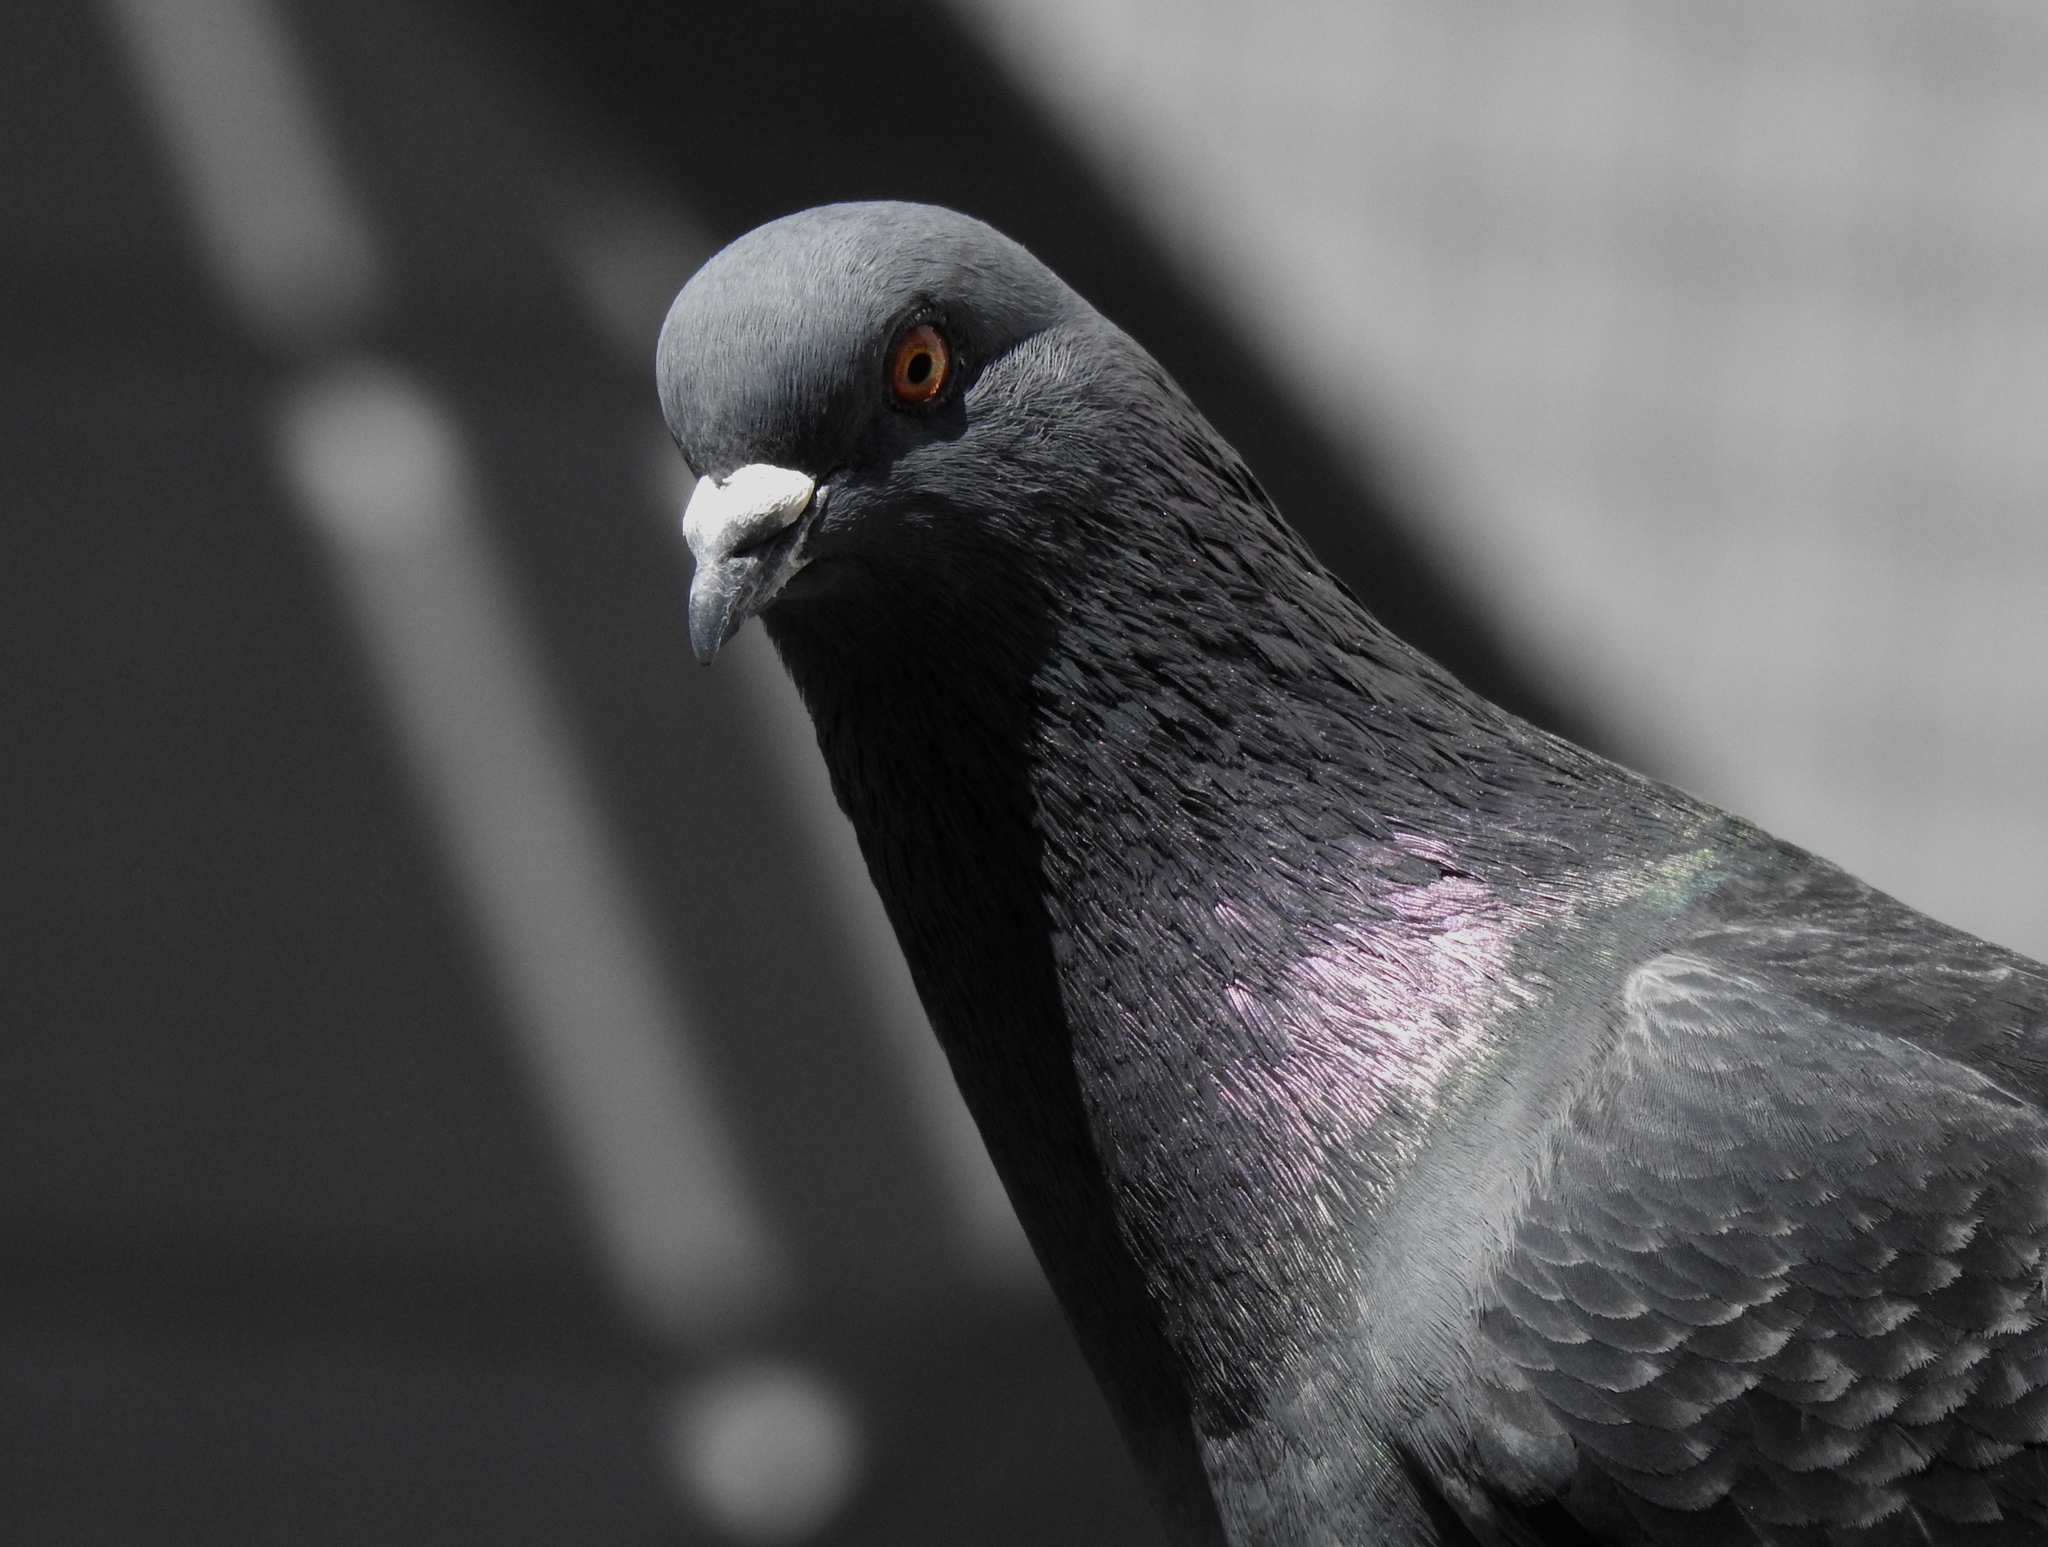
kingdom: Animalia
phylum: Chordata
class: Aves
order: Columbiformes
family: Columbidae
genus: Columba
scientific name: Columba livia
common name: Rock pigeon
